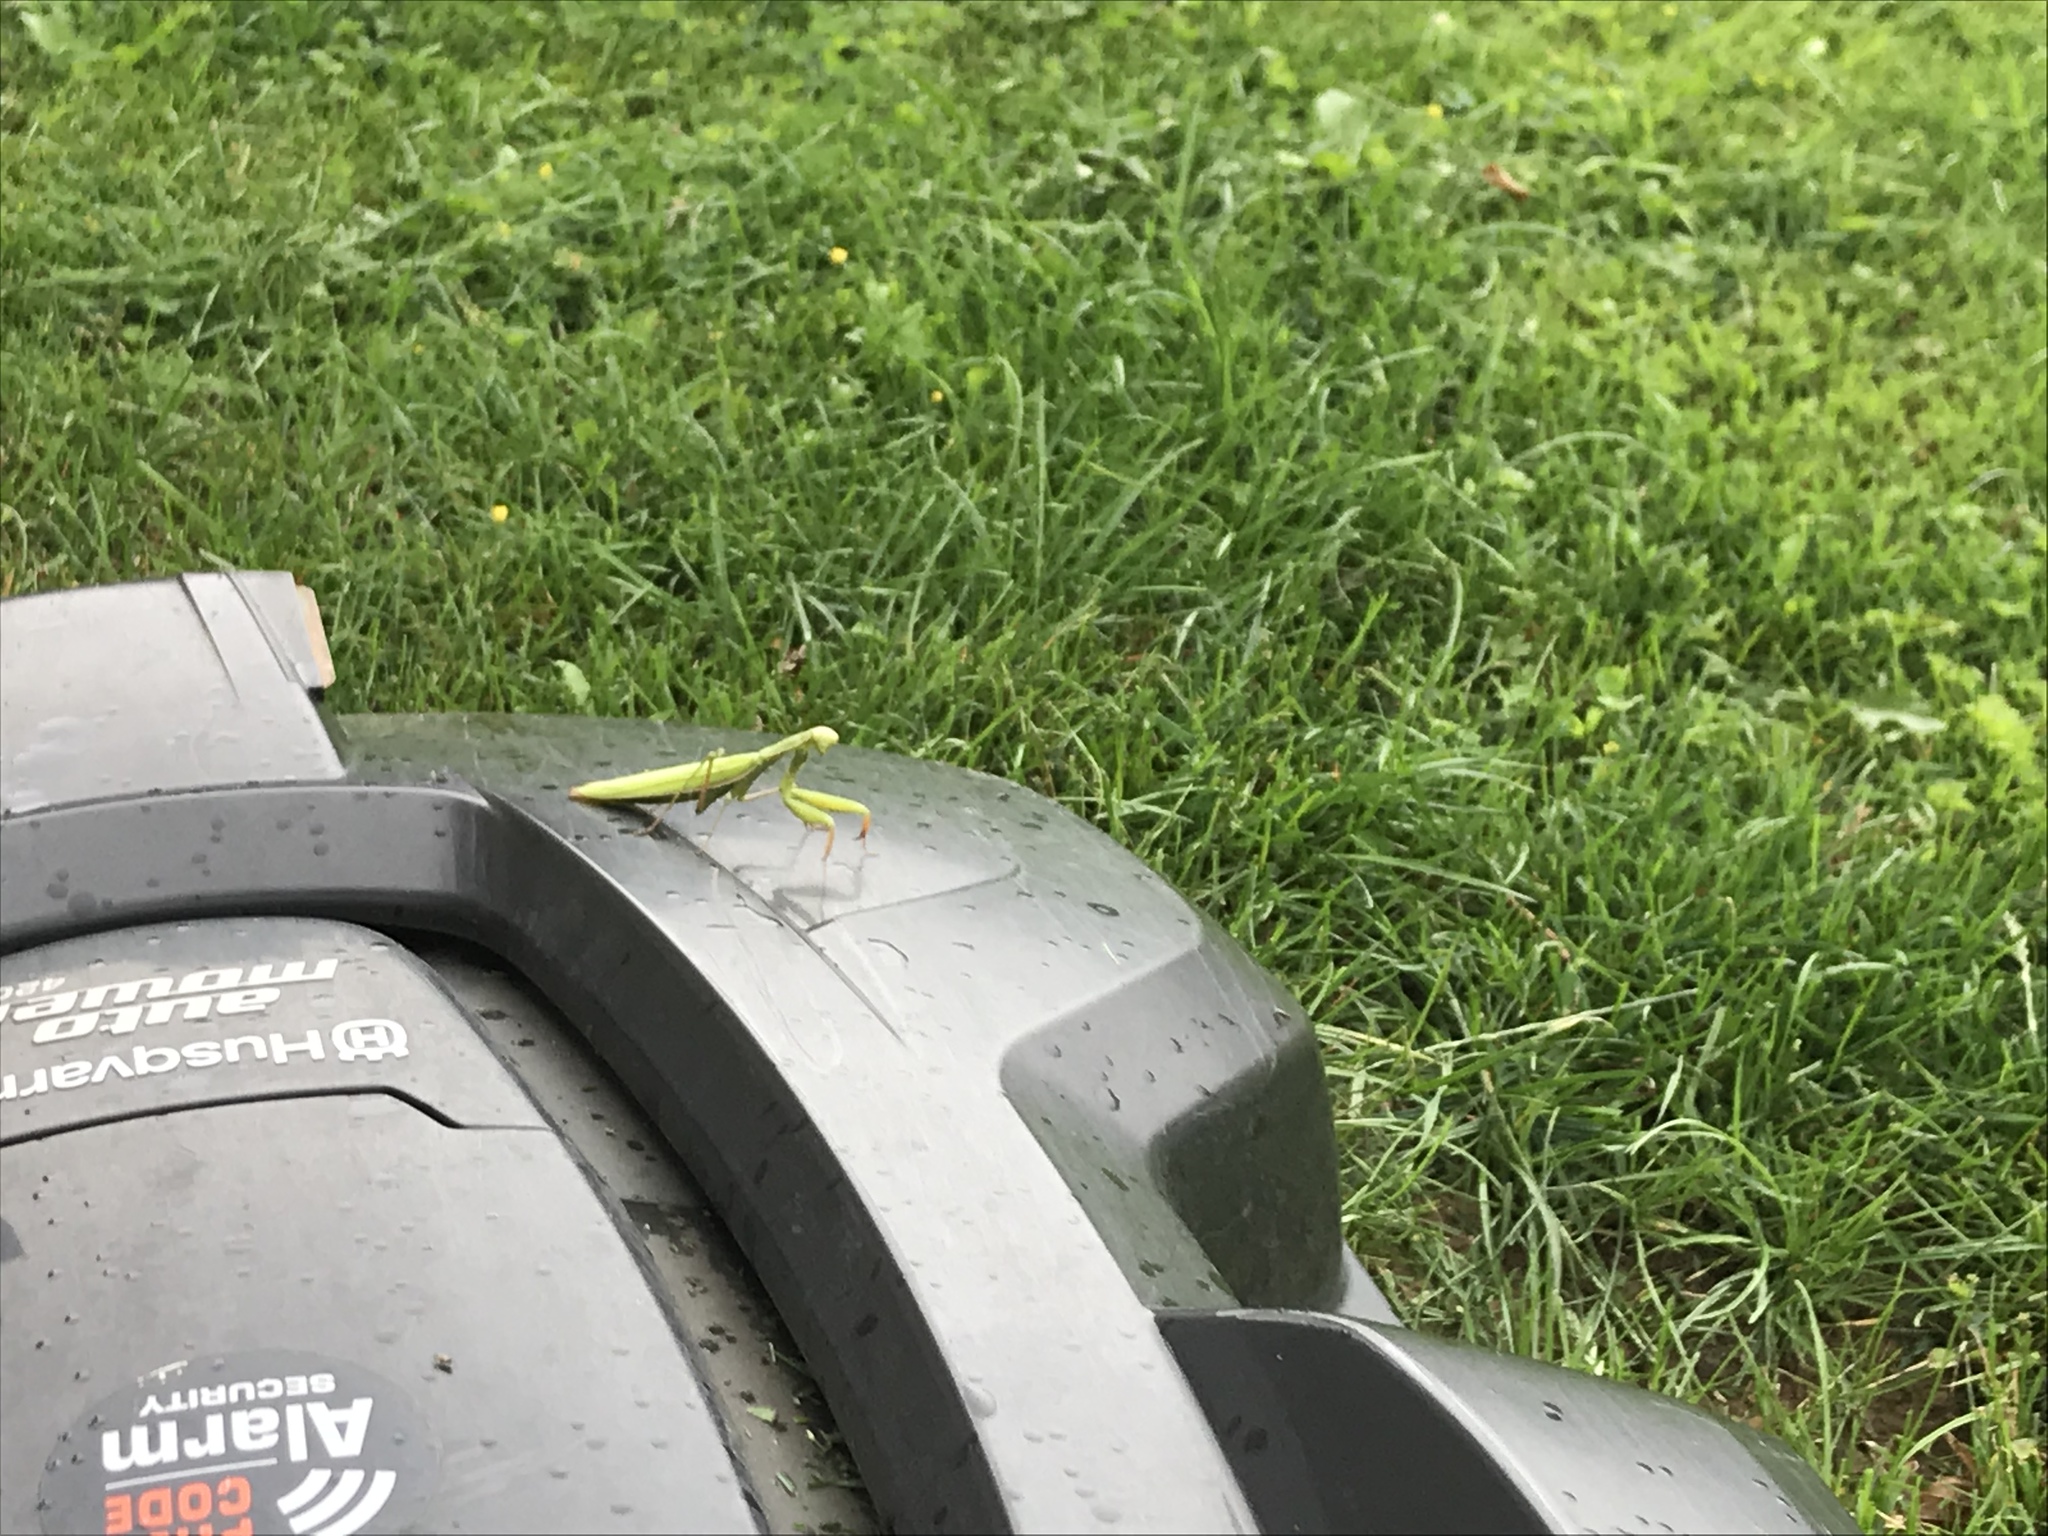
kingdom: Animalia
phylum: Arthropoda
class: Insecta
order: Mantodea
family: Mantidae
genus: Mantis
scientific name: Mantis religiosa
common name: Praying mantis
